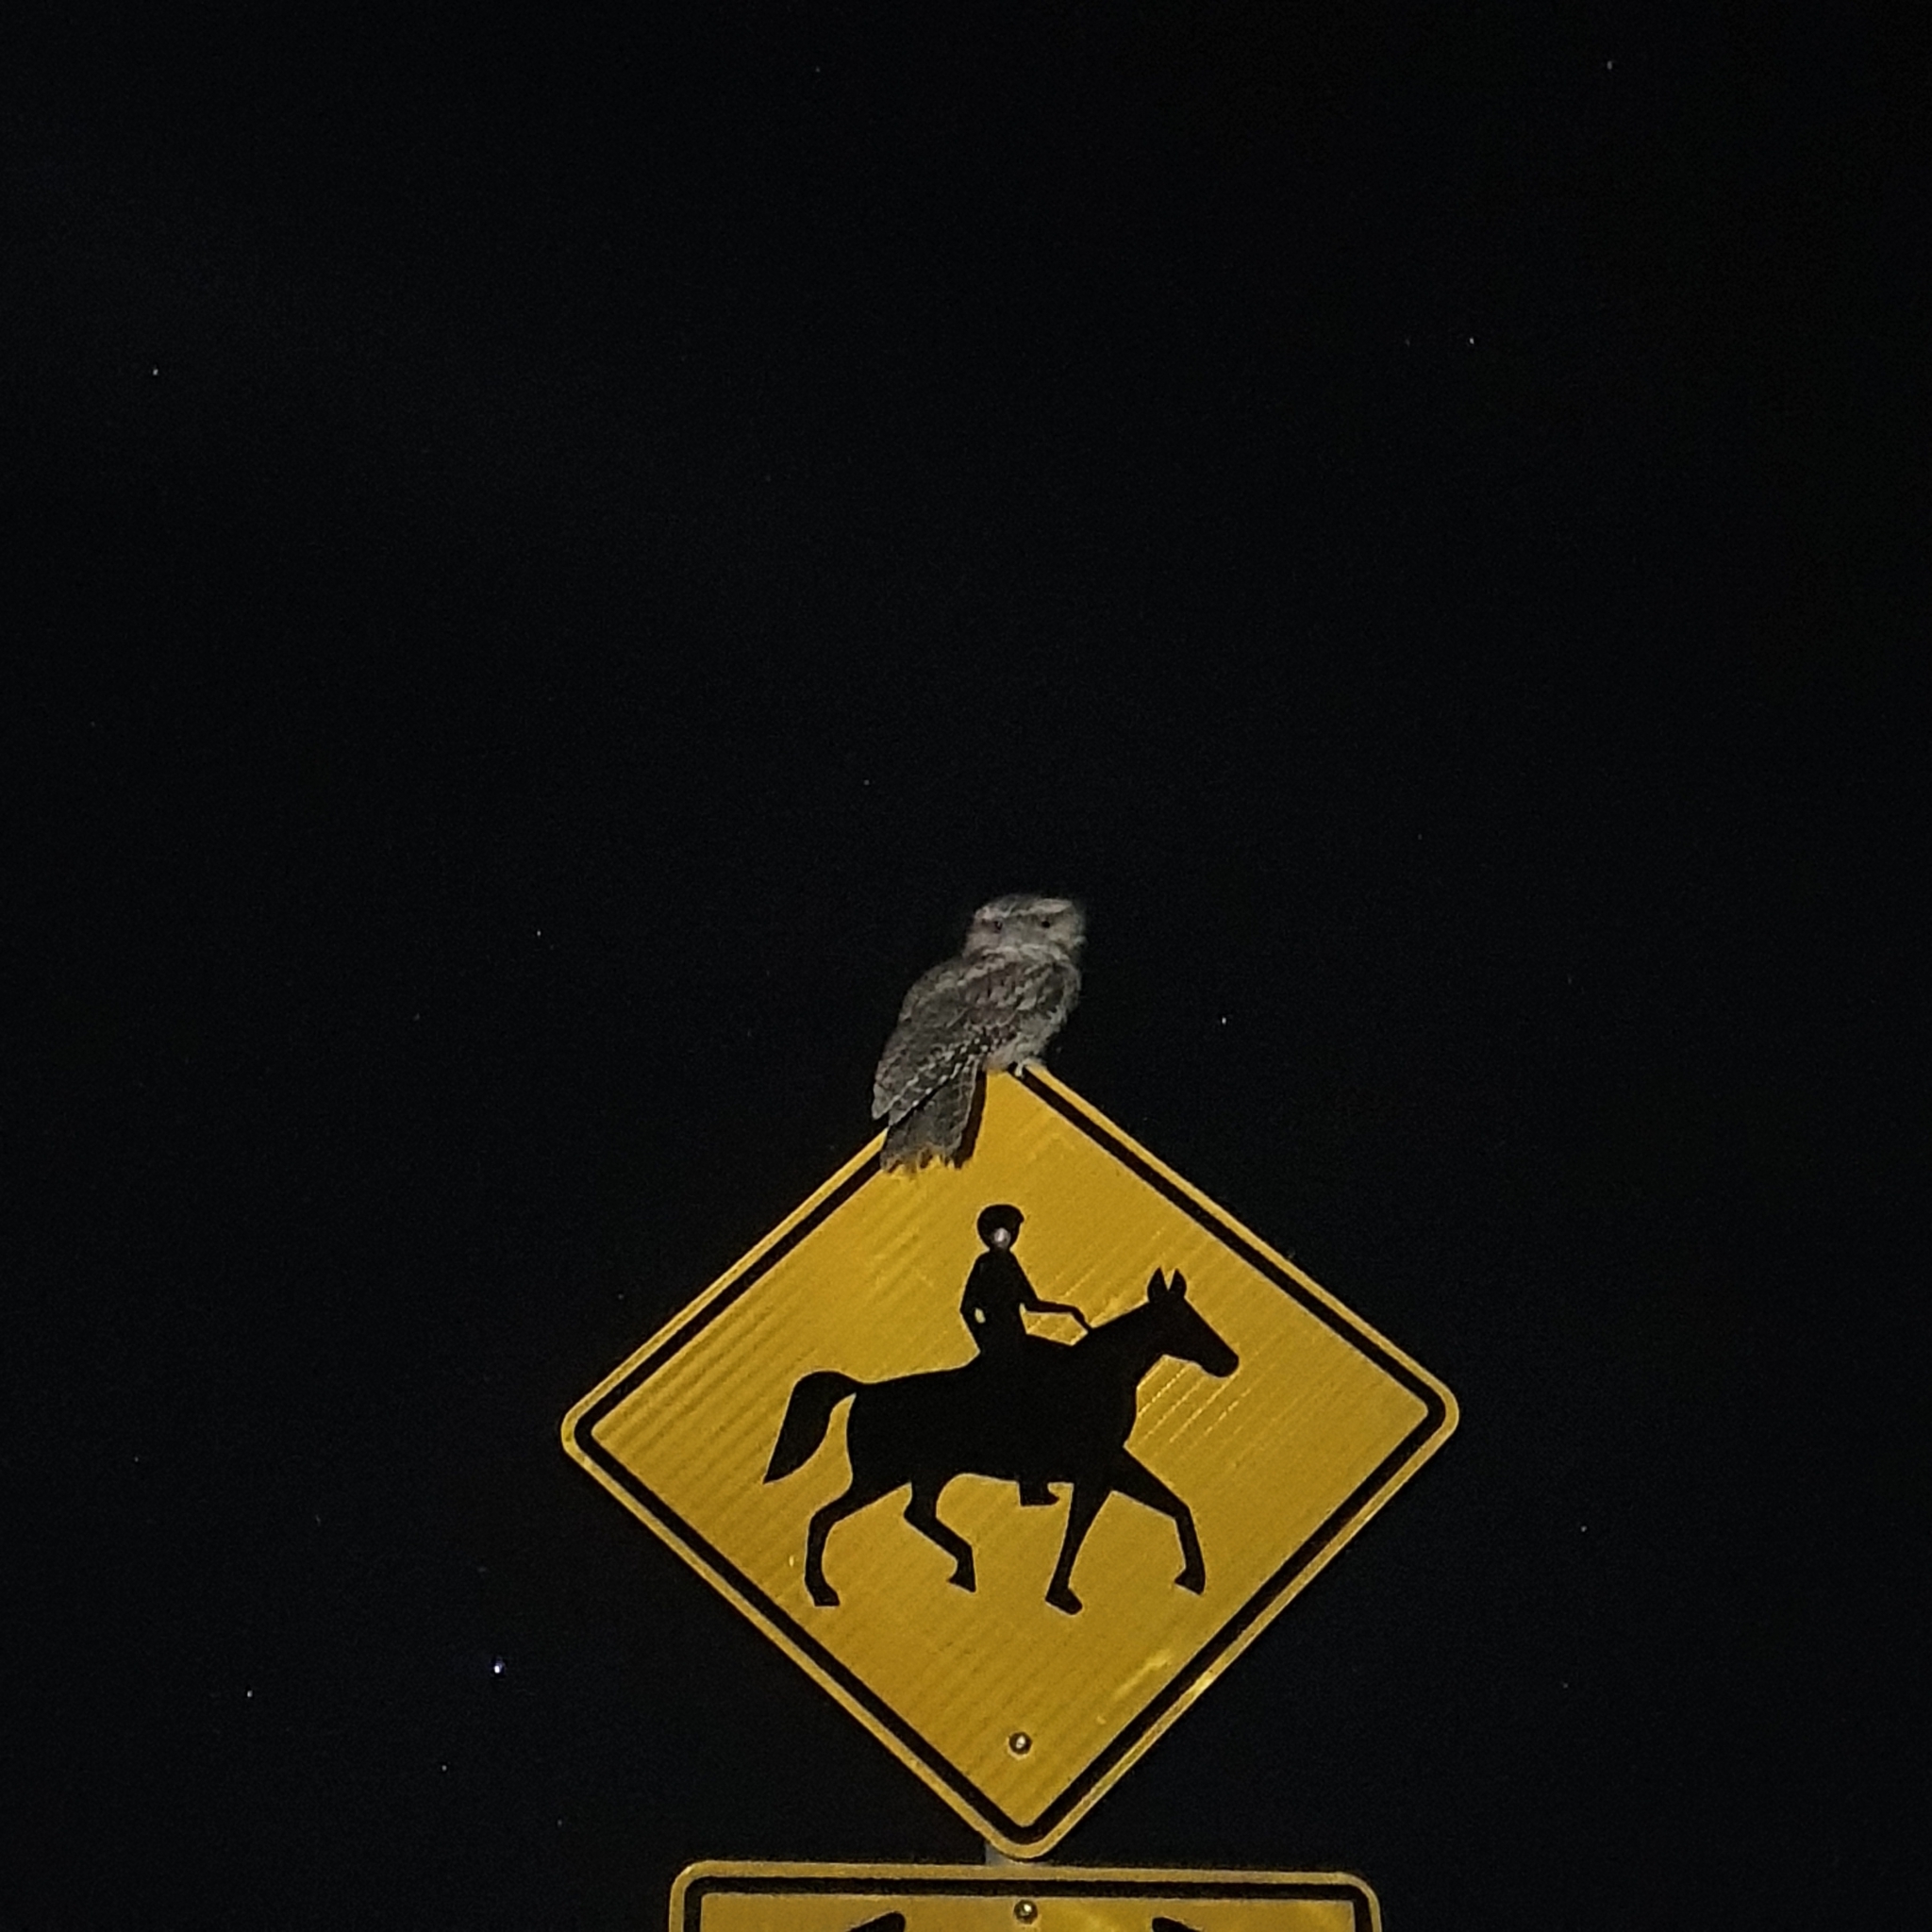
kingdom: Animalia
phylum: Chordata
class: Aves
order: Caprimulgiformes
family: Podargidae
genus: Podargus
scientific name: Podargus strigoides
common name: Tawny frogmouth
